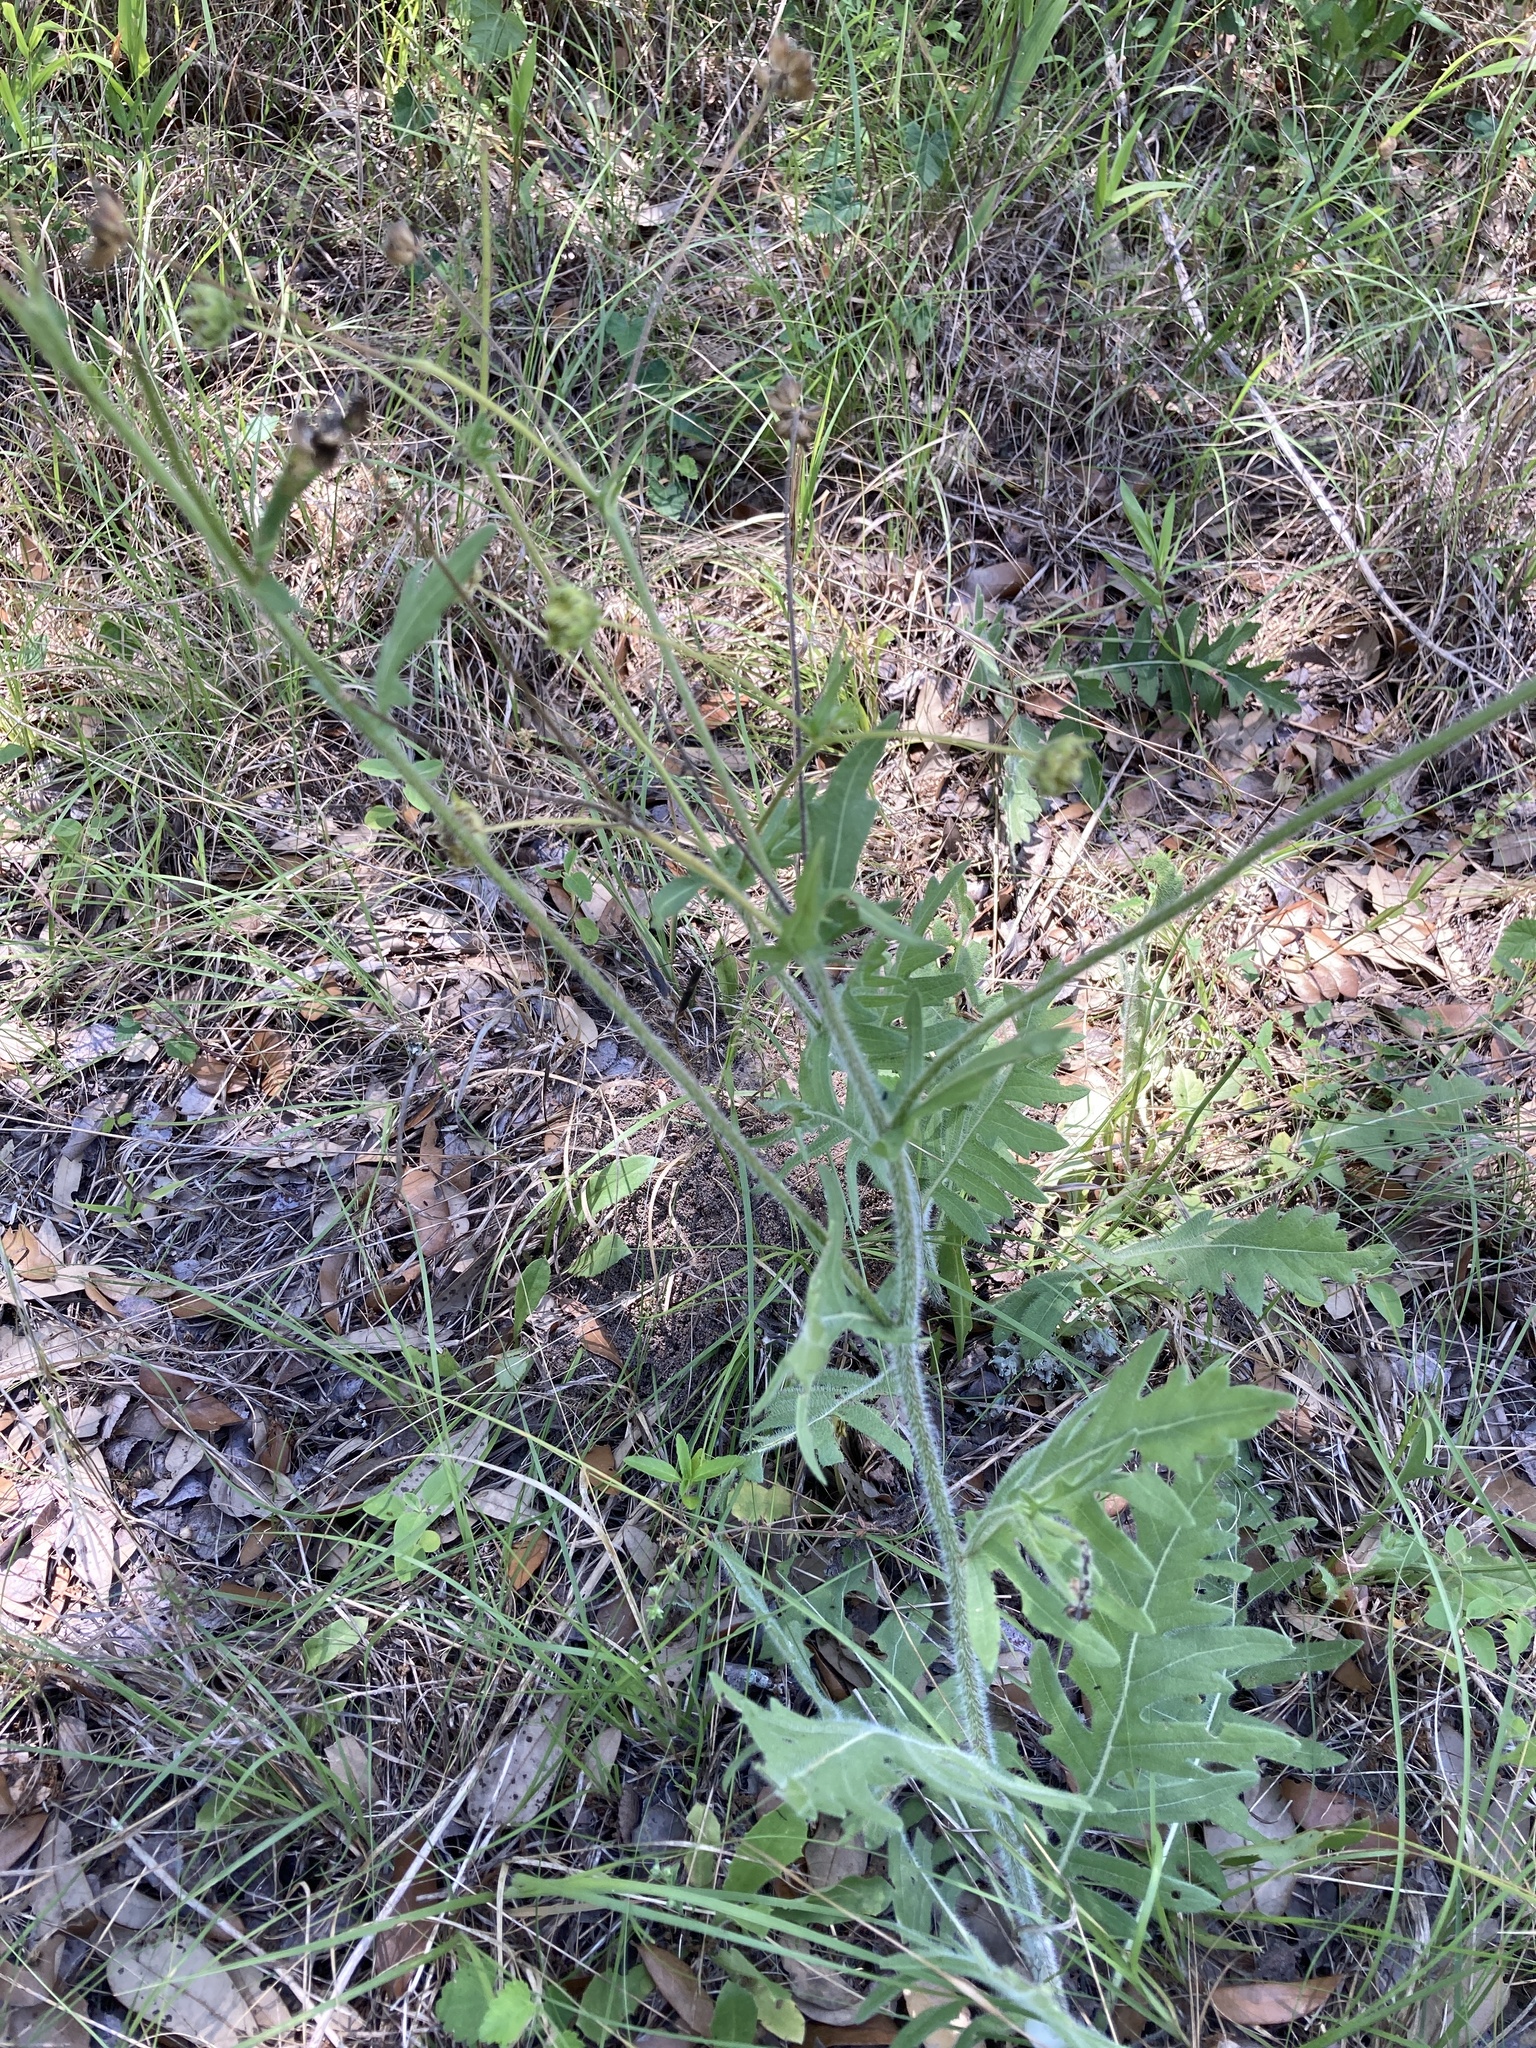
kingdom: Plantae
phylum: Tracheophyta
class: Magnoliopsida
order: Asterales
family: Asteraceae
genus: Engelmannia
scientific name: Engelmannia peristenia
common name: Engelmann's daisy
